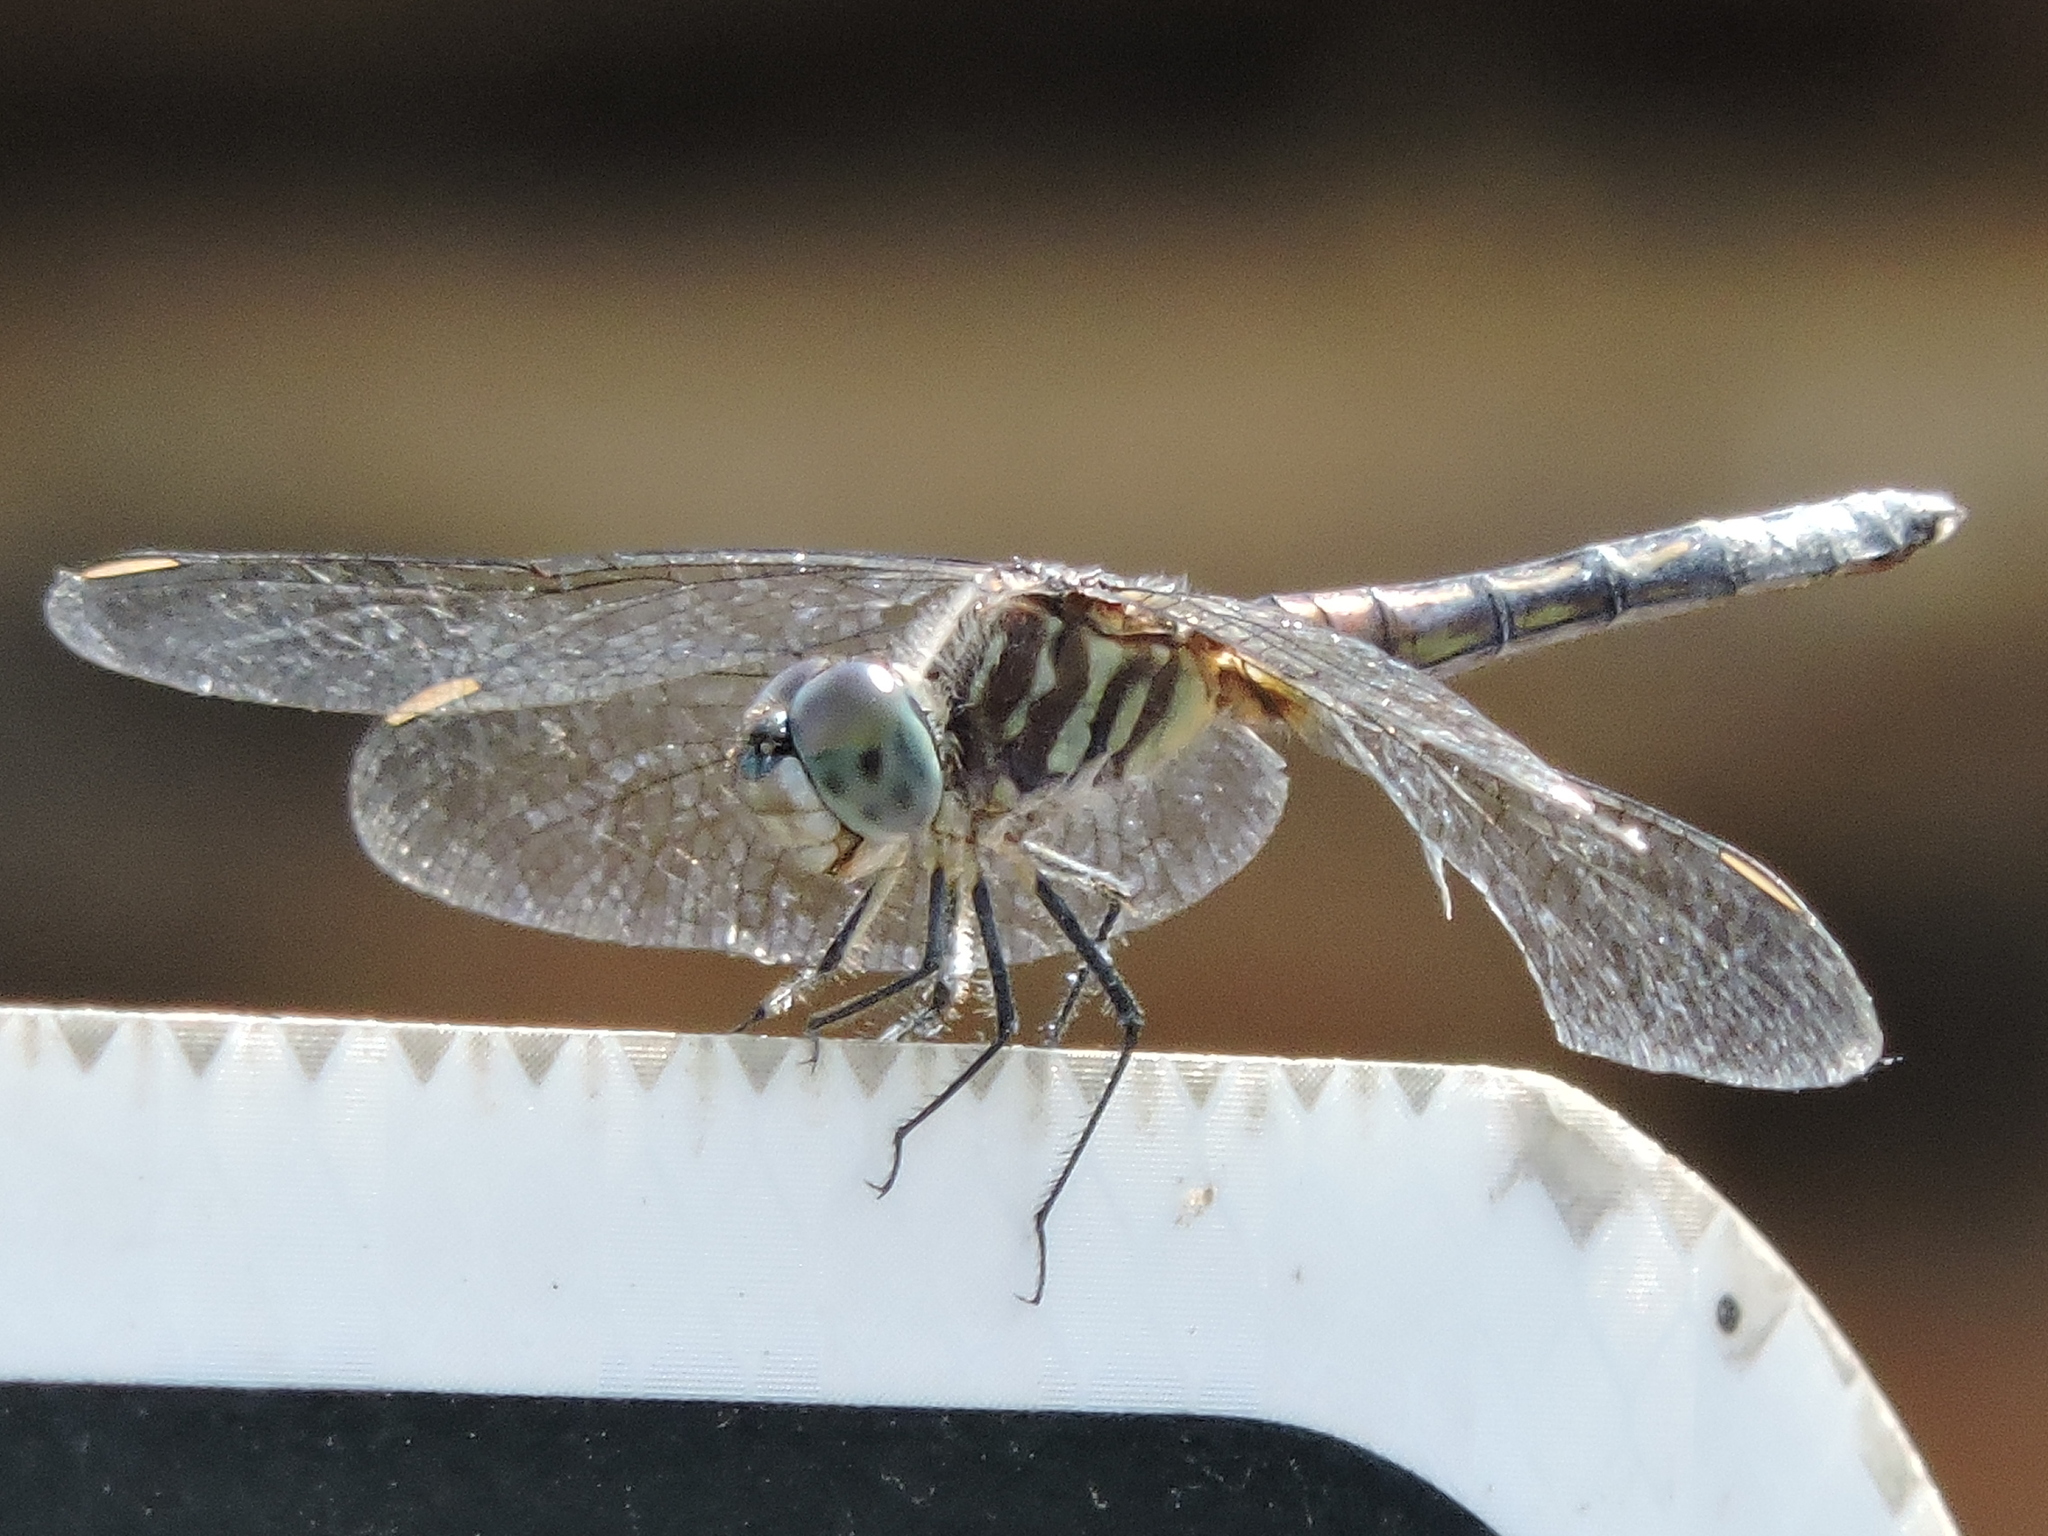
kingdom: Animalia
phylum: Arthropoda
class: Insecta
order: Odonata
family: Libellulidae
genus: Pachydiplax
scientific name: Pachydiplax longipennis
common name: Blue dasher
